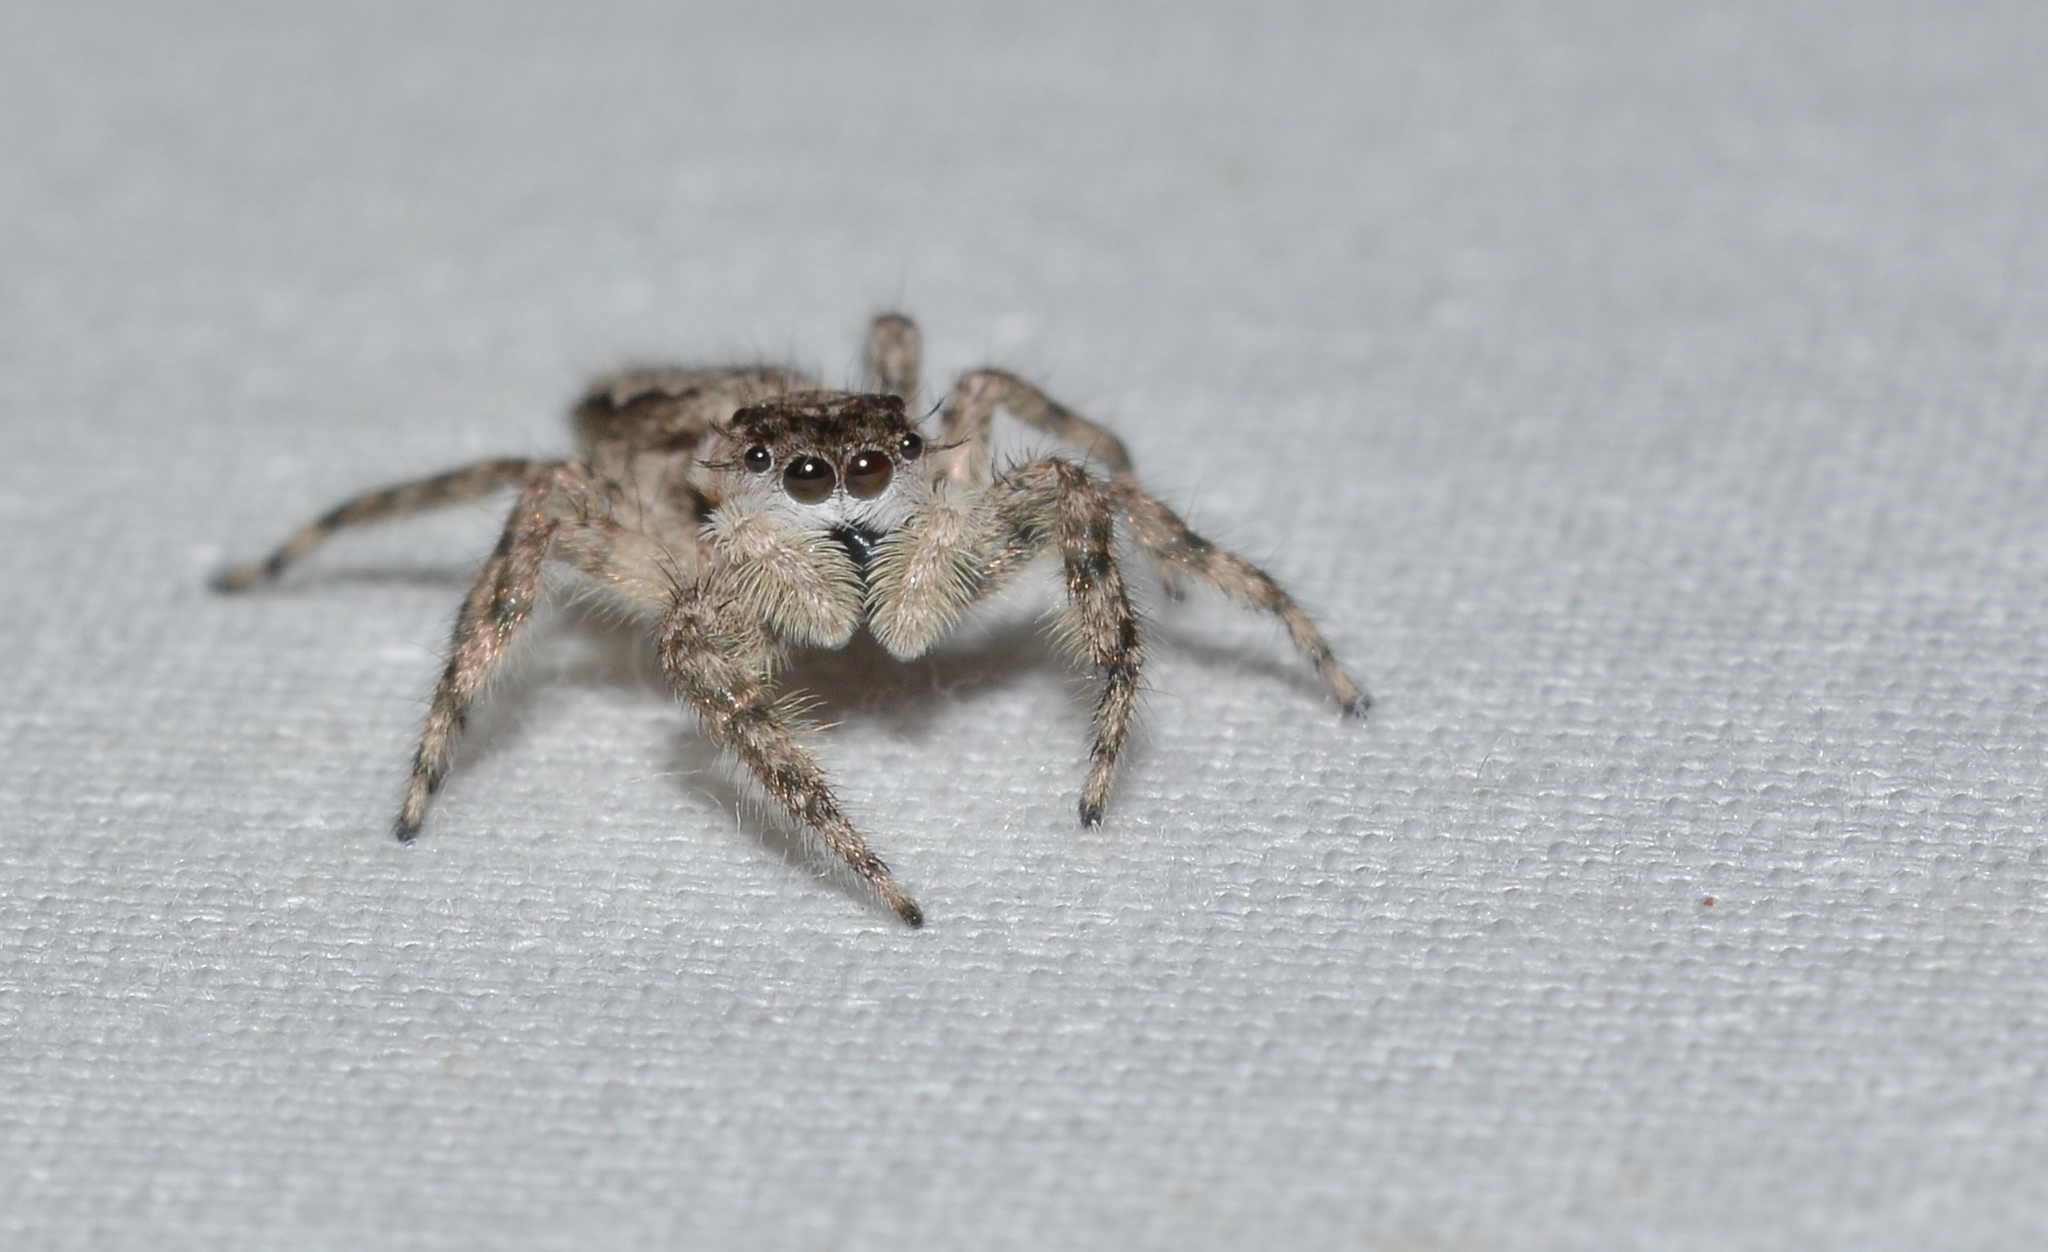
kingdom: Animalia
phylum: Arthropoda
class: Arachnida
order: Araneae
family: Salticidae
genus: Platycryptus
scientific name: Platycryptus undatus
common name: Tan jumping spider
